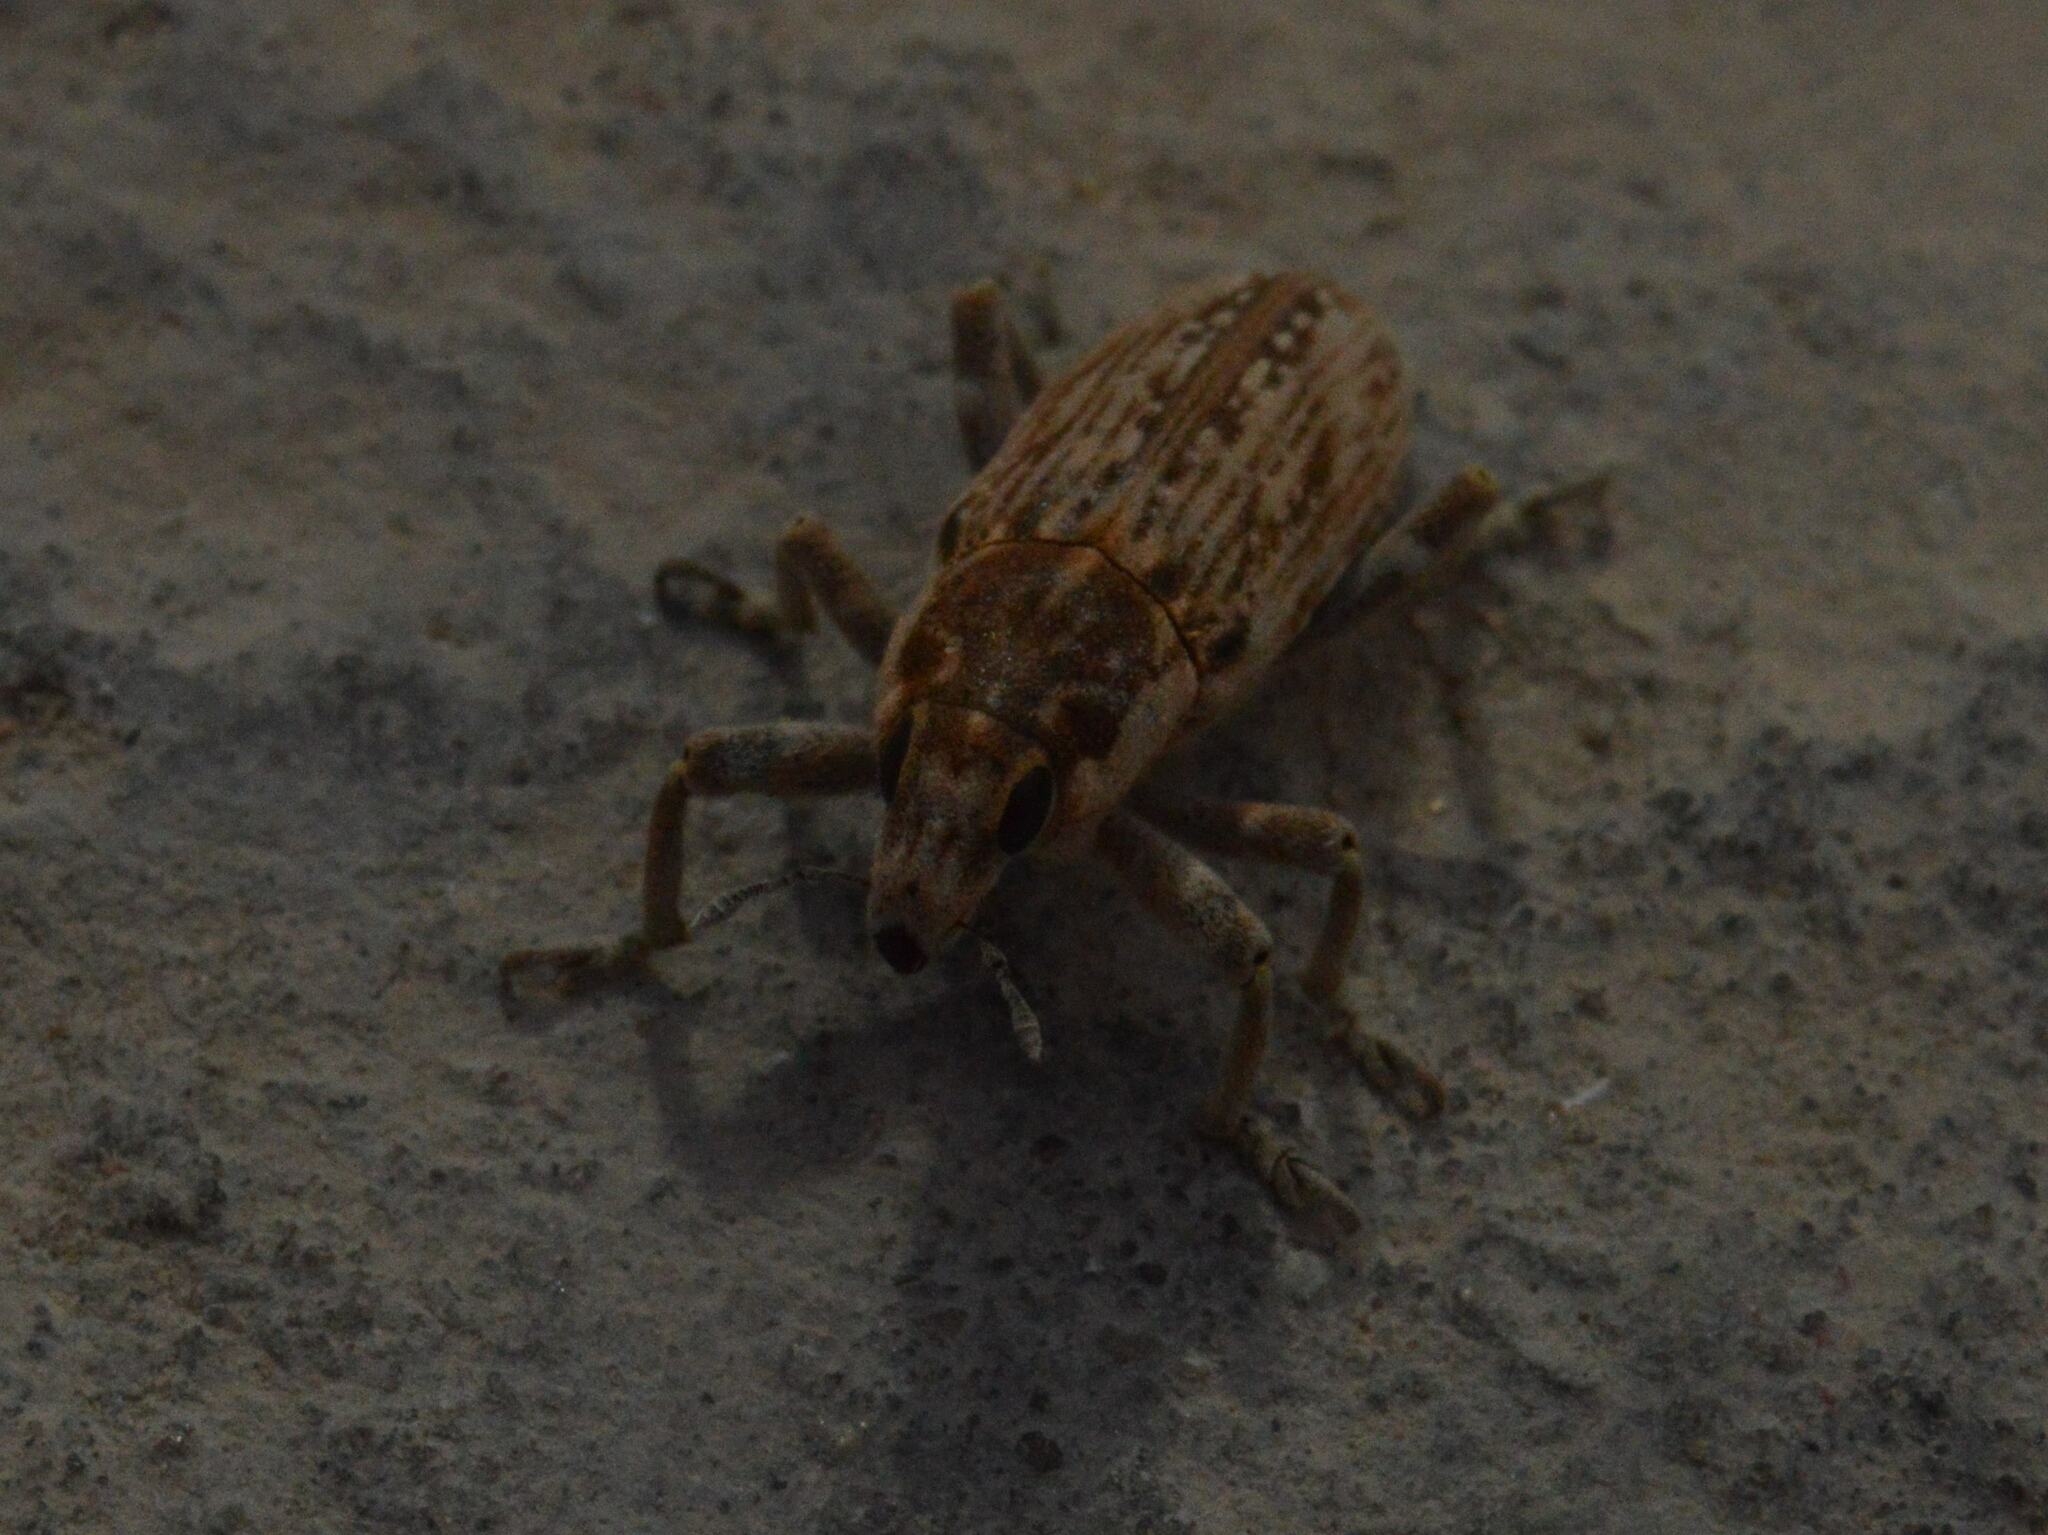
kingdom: Animalia
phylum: Arthropoda
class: Insecta
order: Coleoptera
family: Curculionidae
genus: Temnorhinus
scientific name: Temnorhinus mixtus
